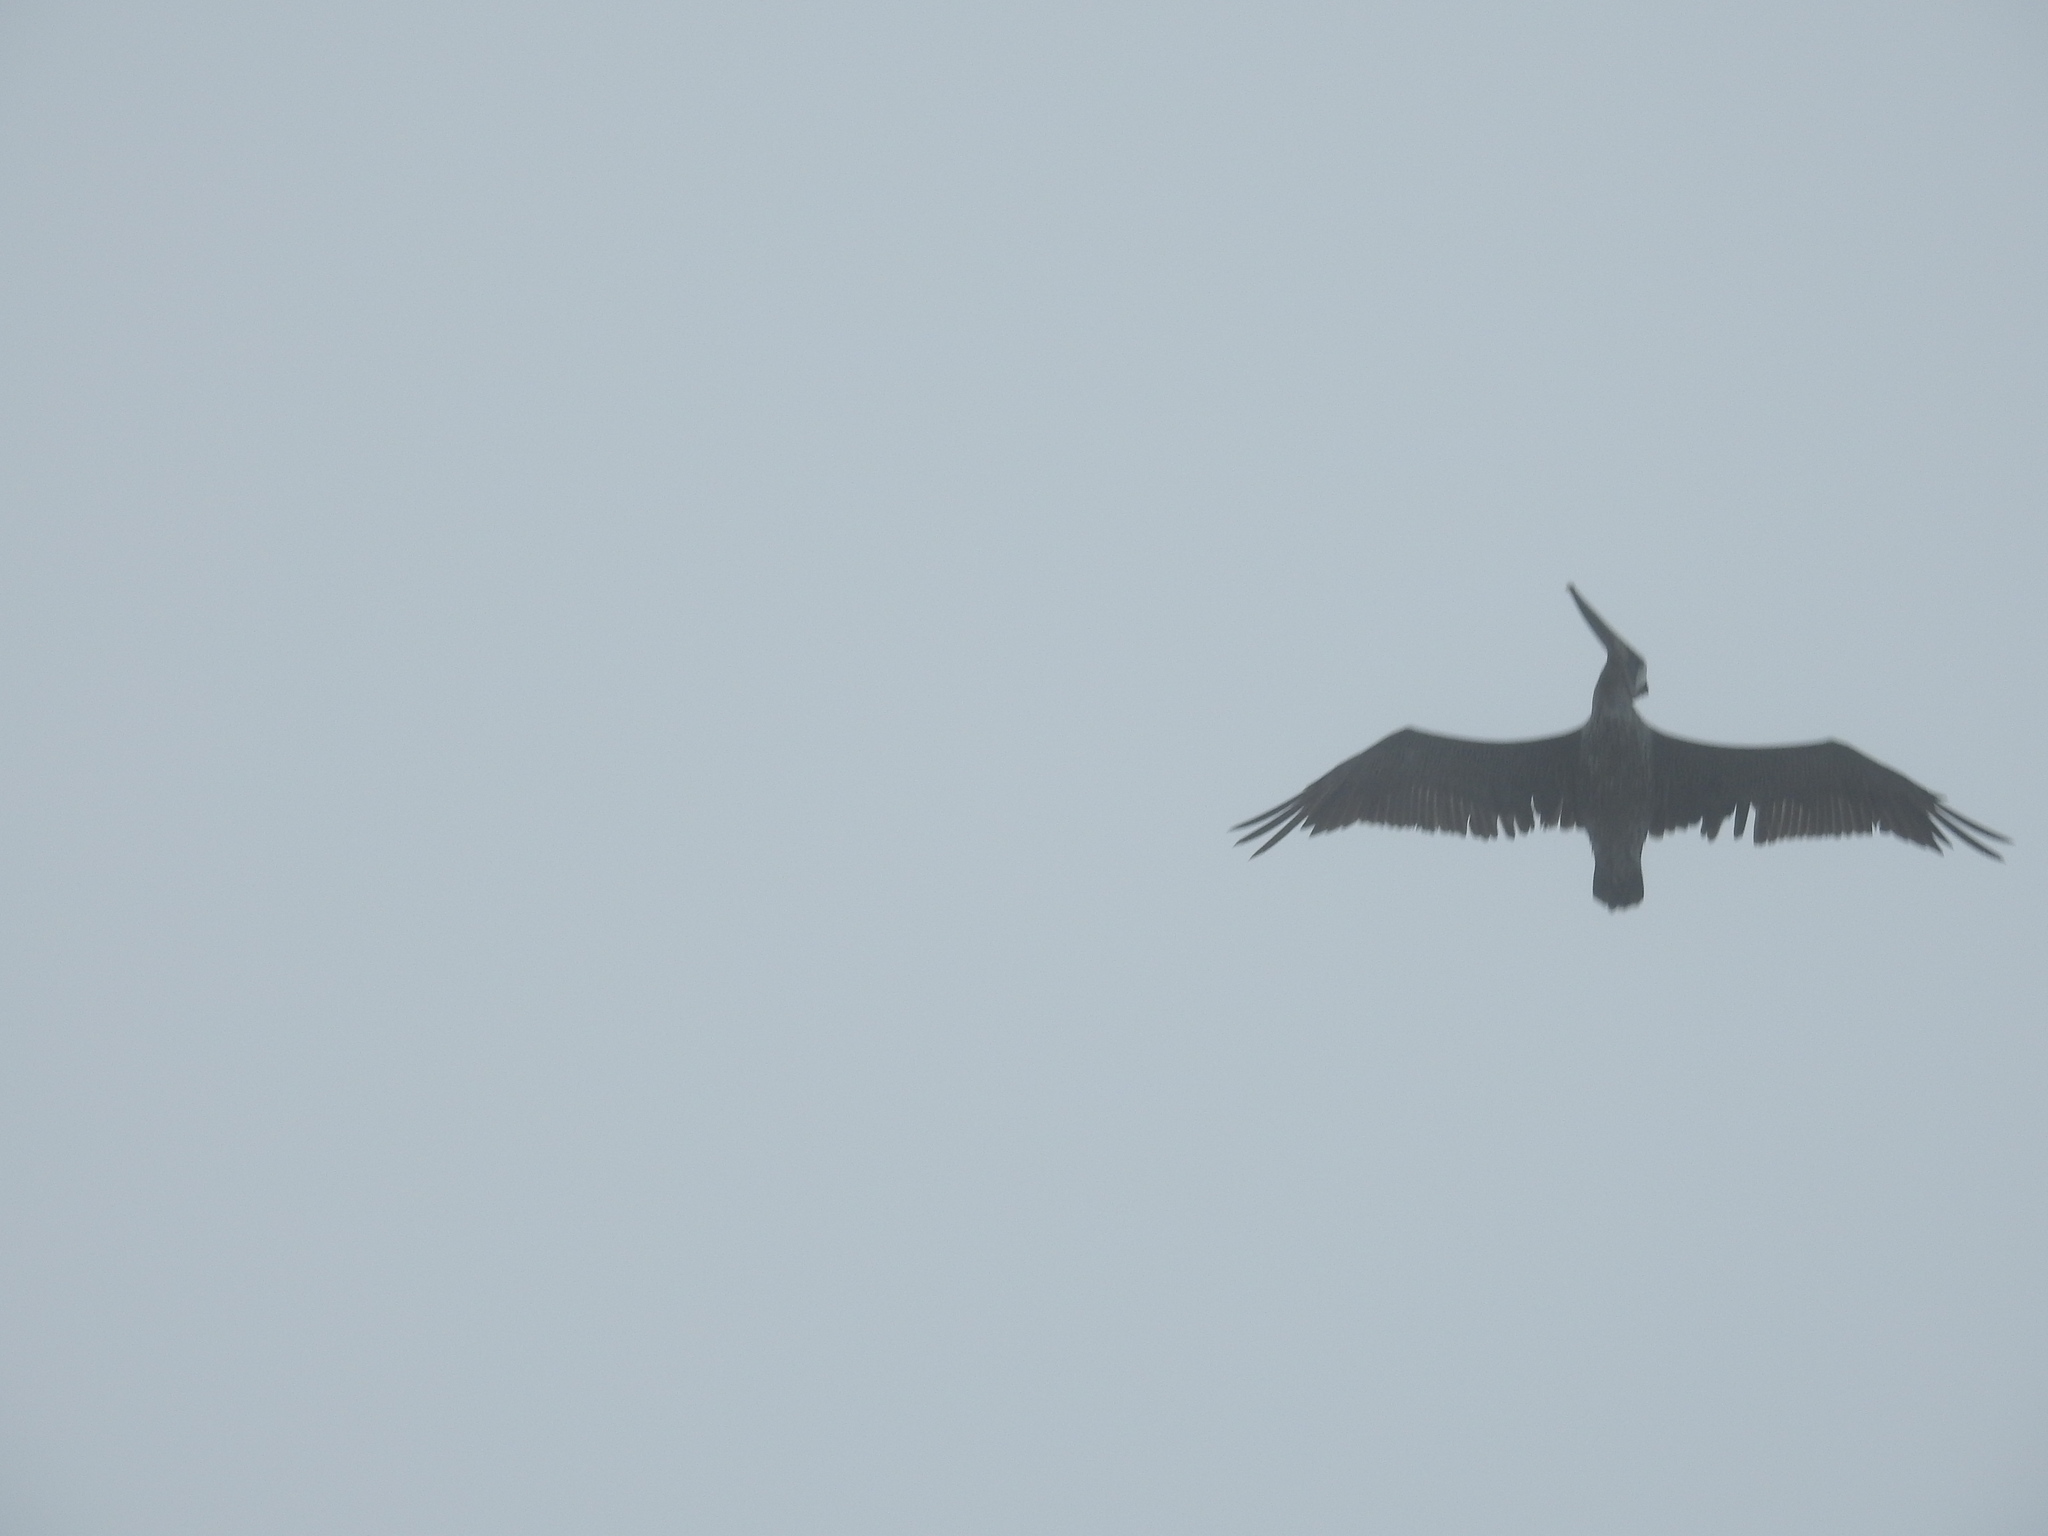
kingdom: Animalia
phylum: Chordata
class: Aves
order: Pelecaniformes
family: Pelecanidae
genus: Pelecanus
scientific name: Pelecanus occidentalis
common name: Brown pelican
